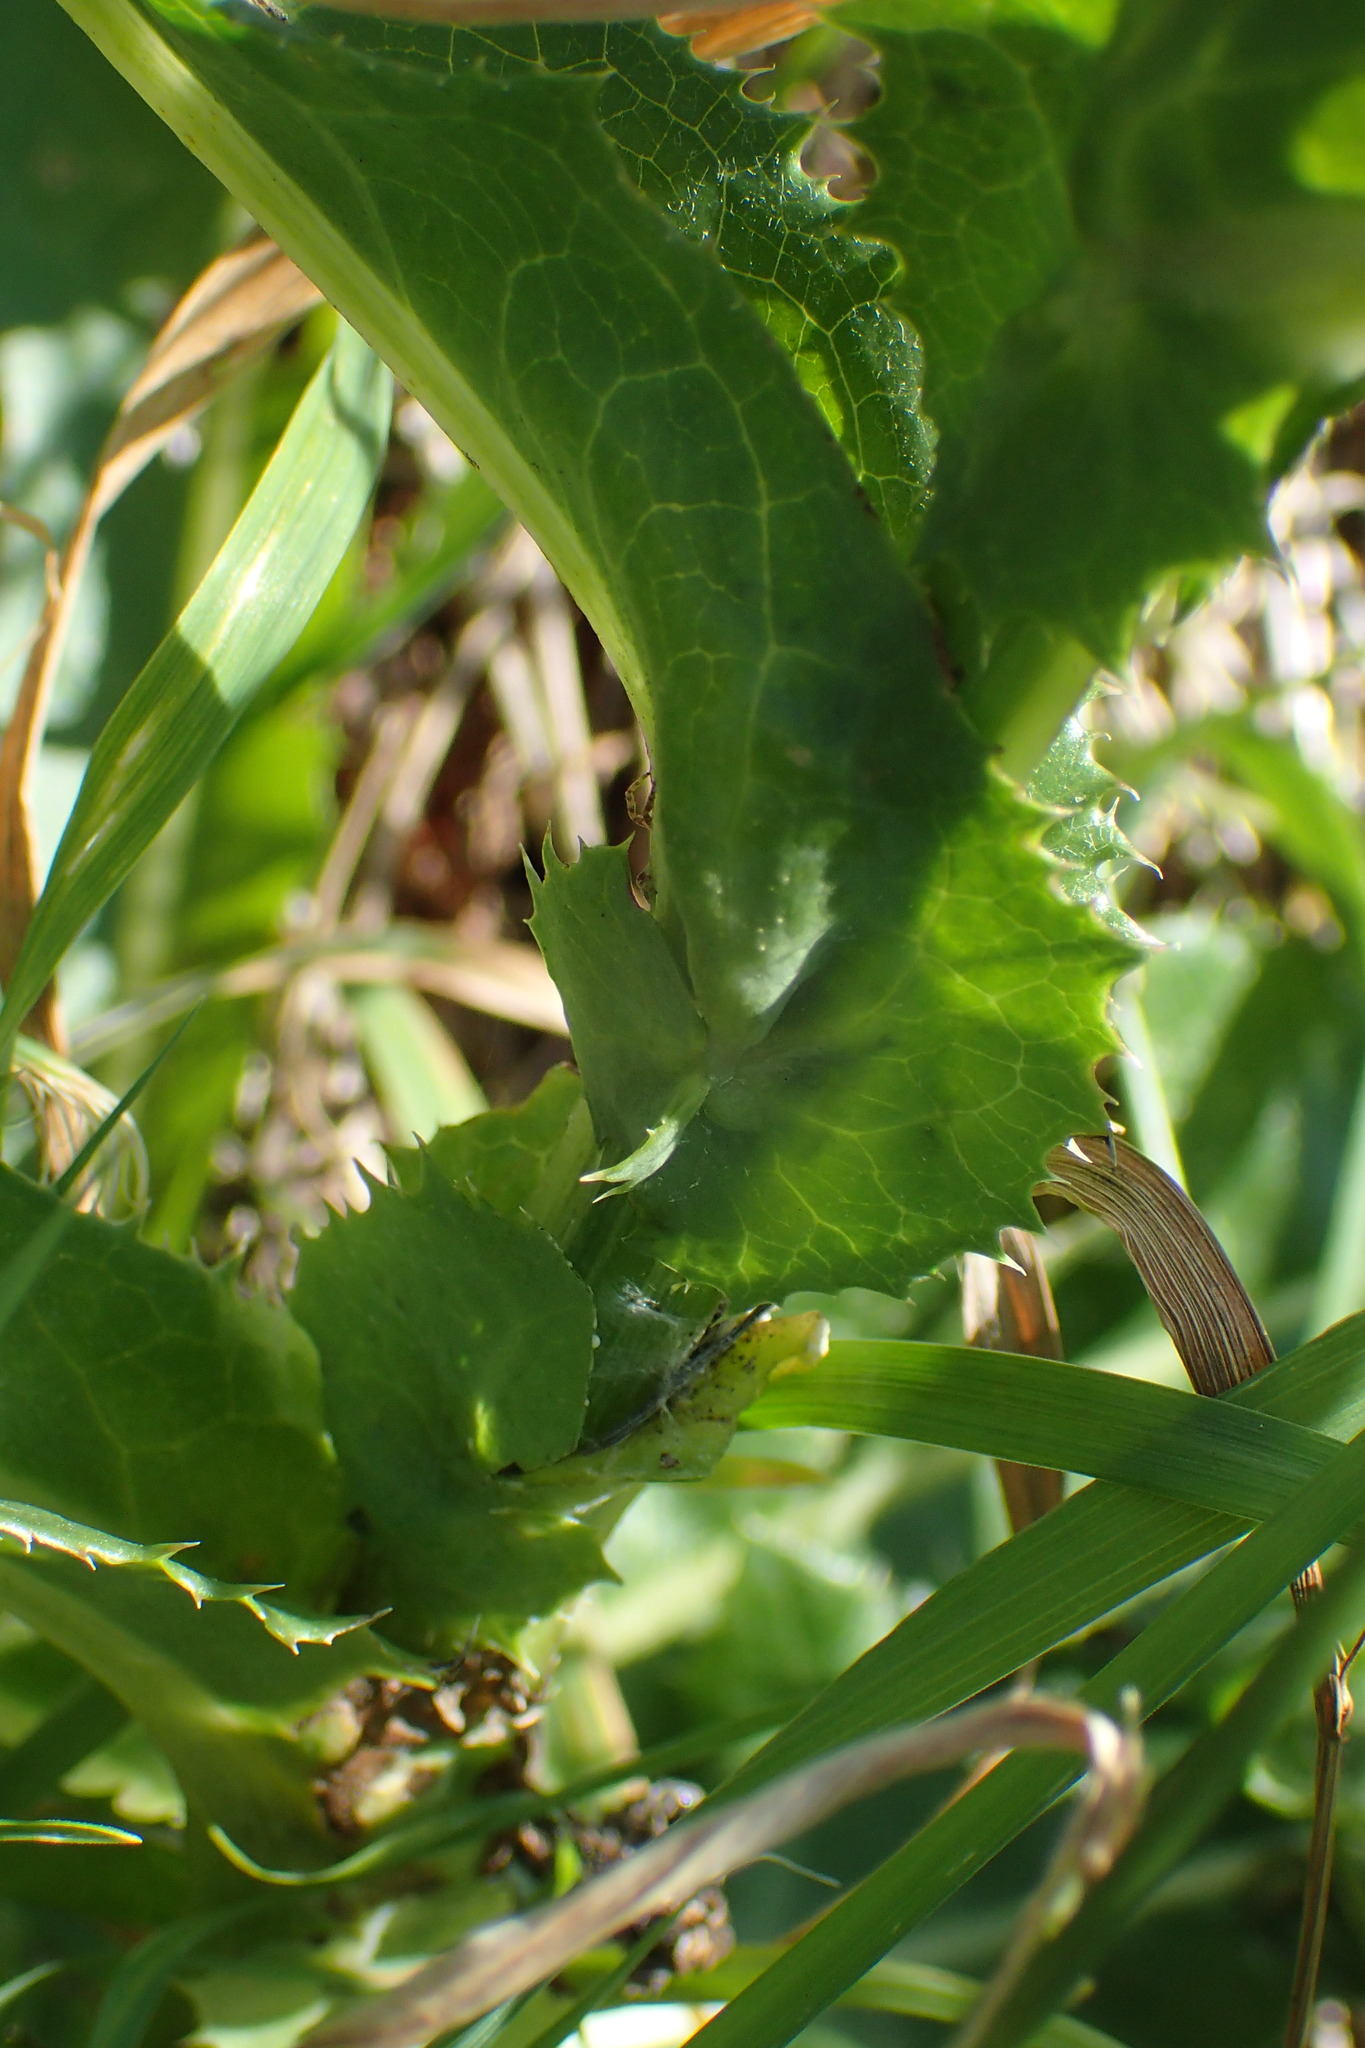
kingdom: Plantae
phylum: Tracheophyta
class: Magnoliopsida
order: Asterales
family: Asteraceae
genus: Sonchus
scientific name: Sonchus arvensis
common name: Perennial sow-thistle
